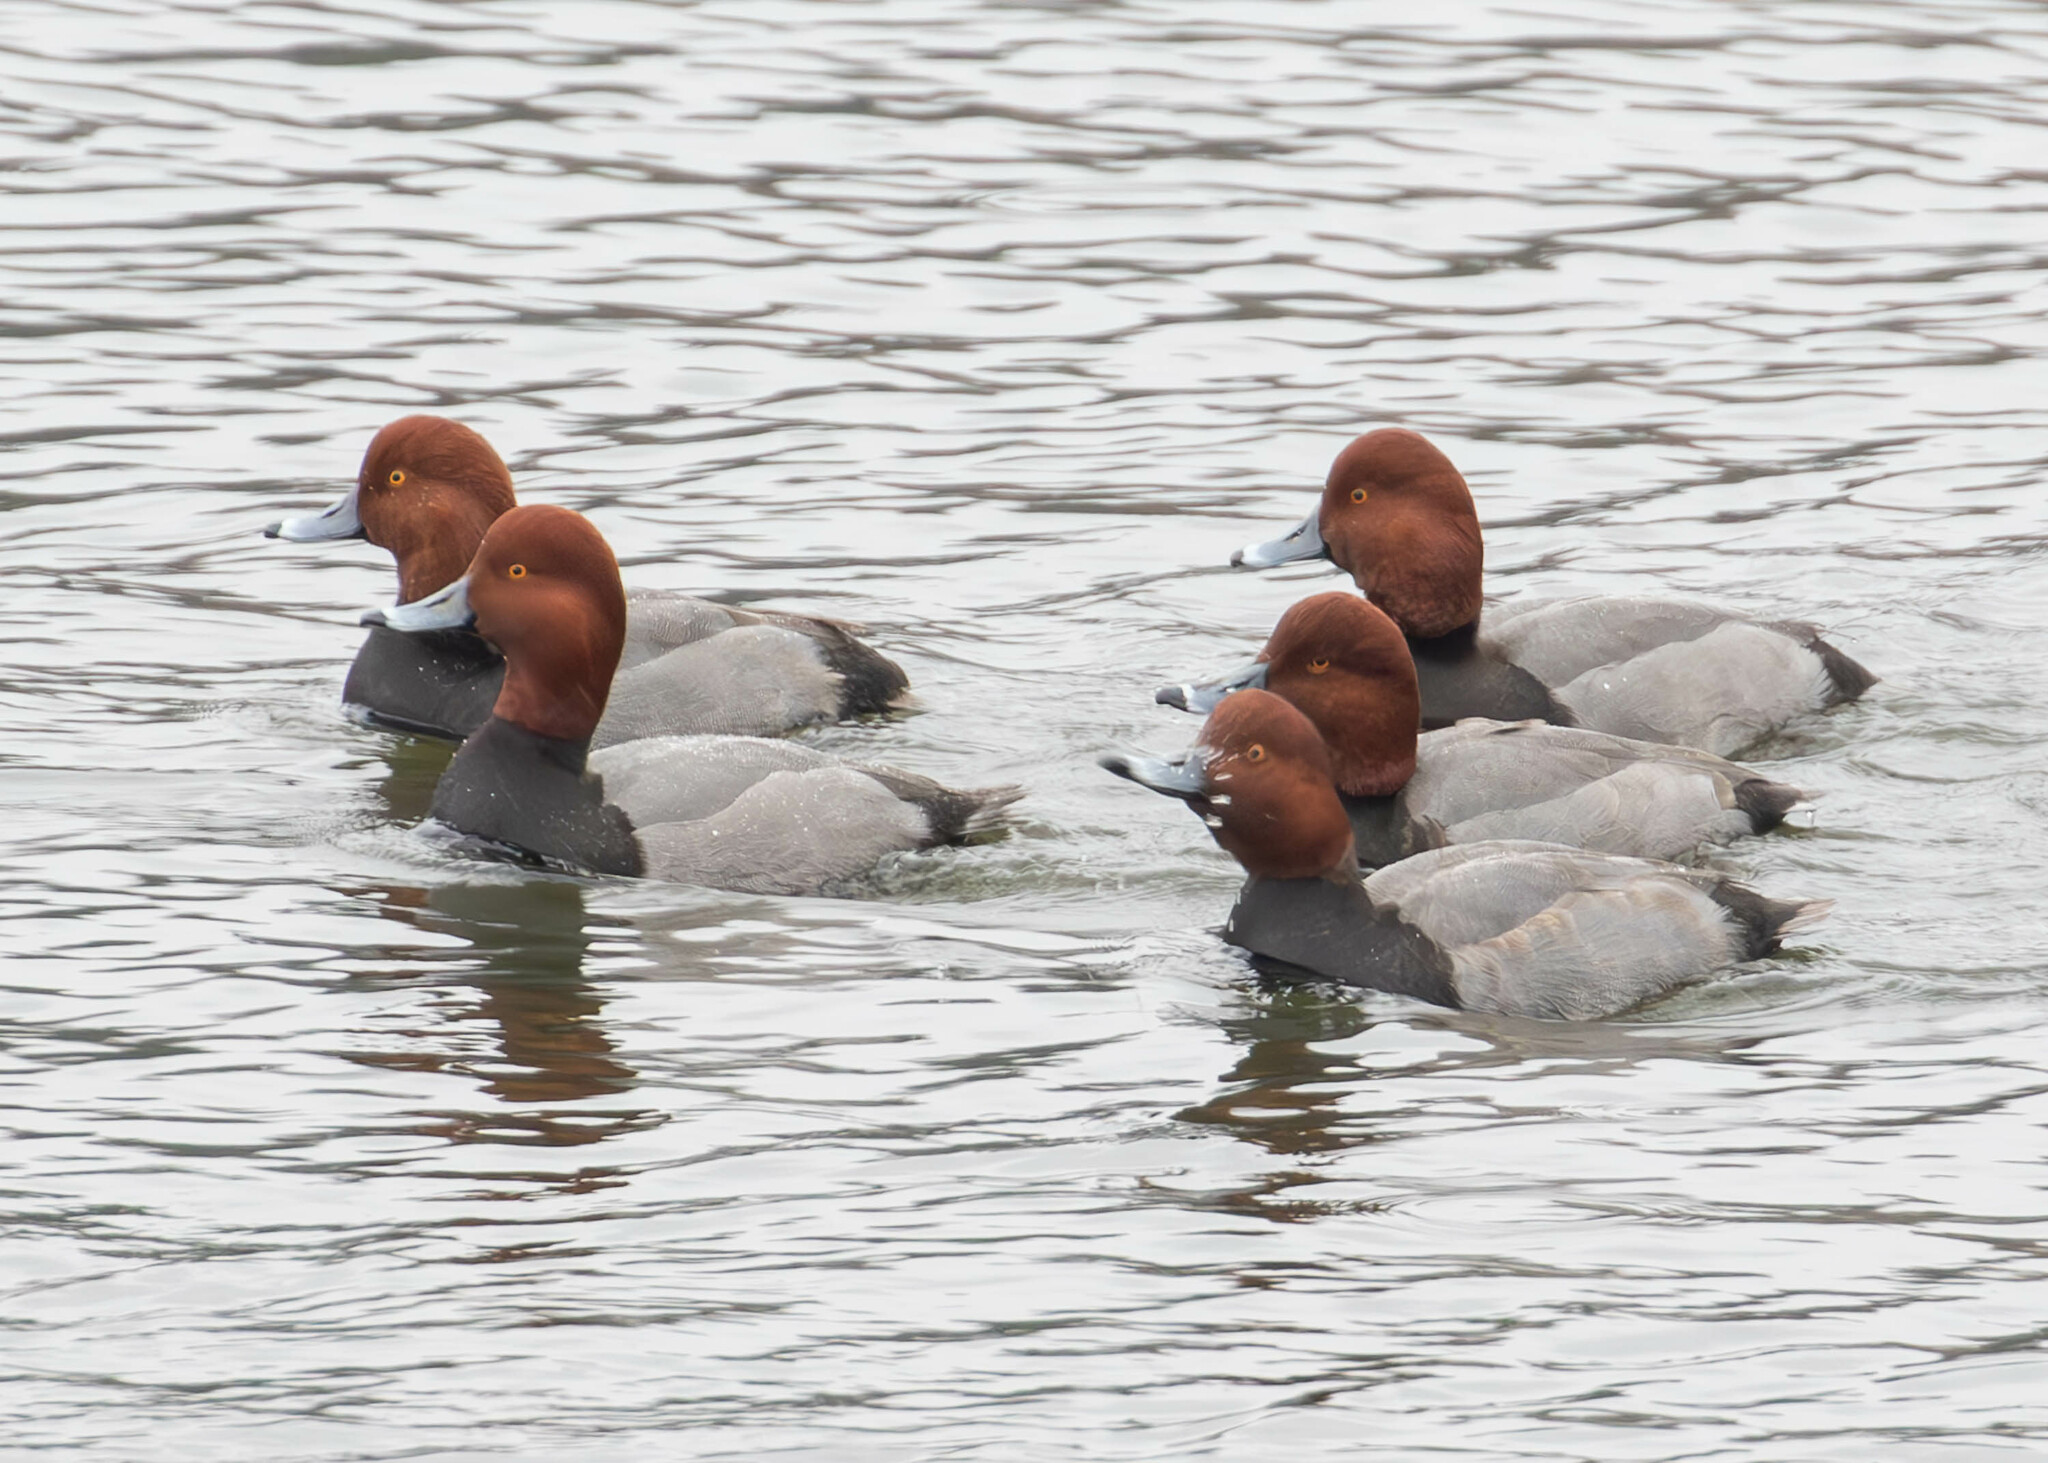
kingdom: Animalia
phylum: Chordata
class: Aves
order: Anseriformes
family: Anatidae
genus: Aythya
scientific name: Aythya americana
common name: Redhead
